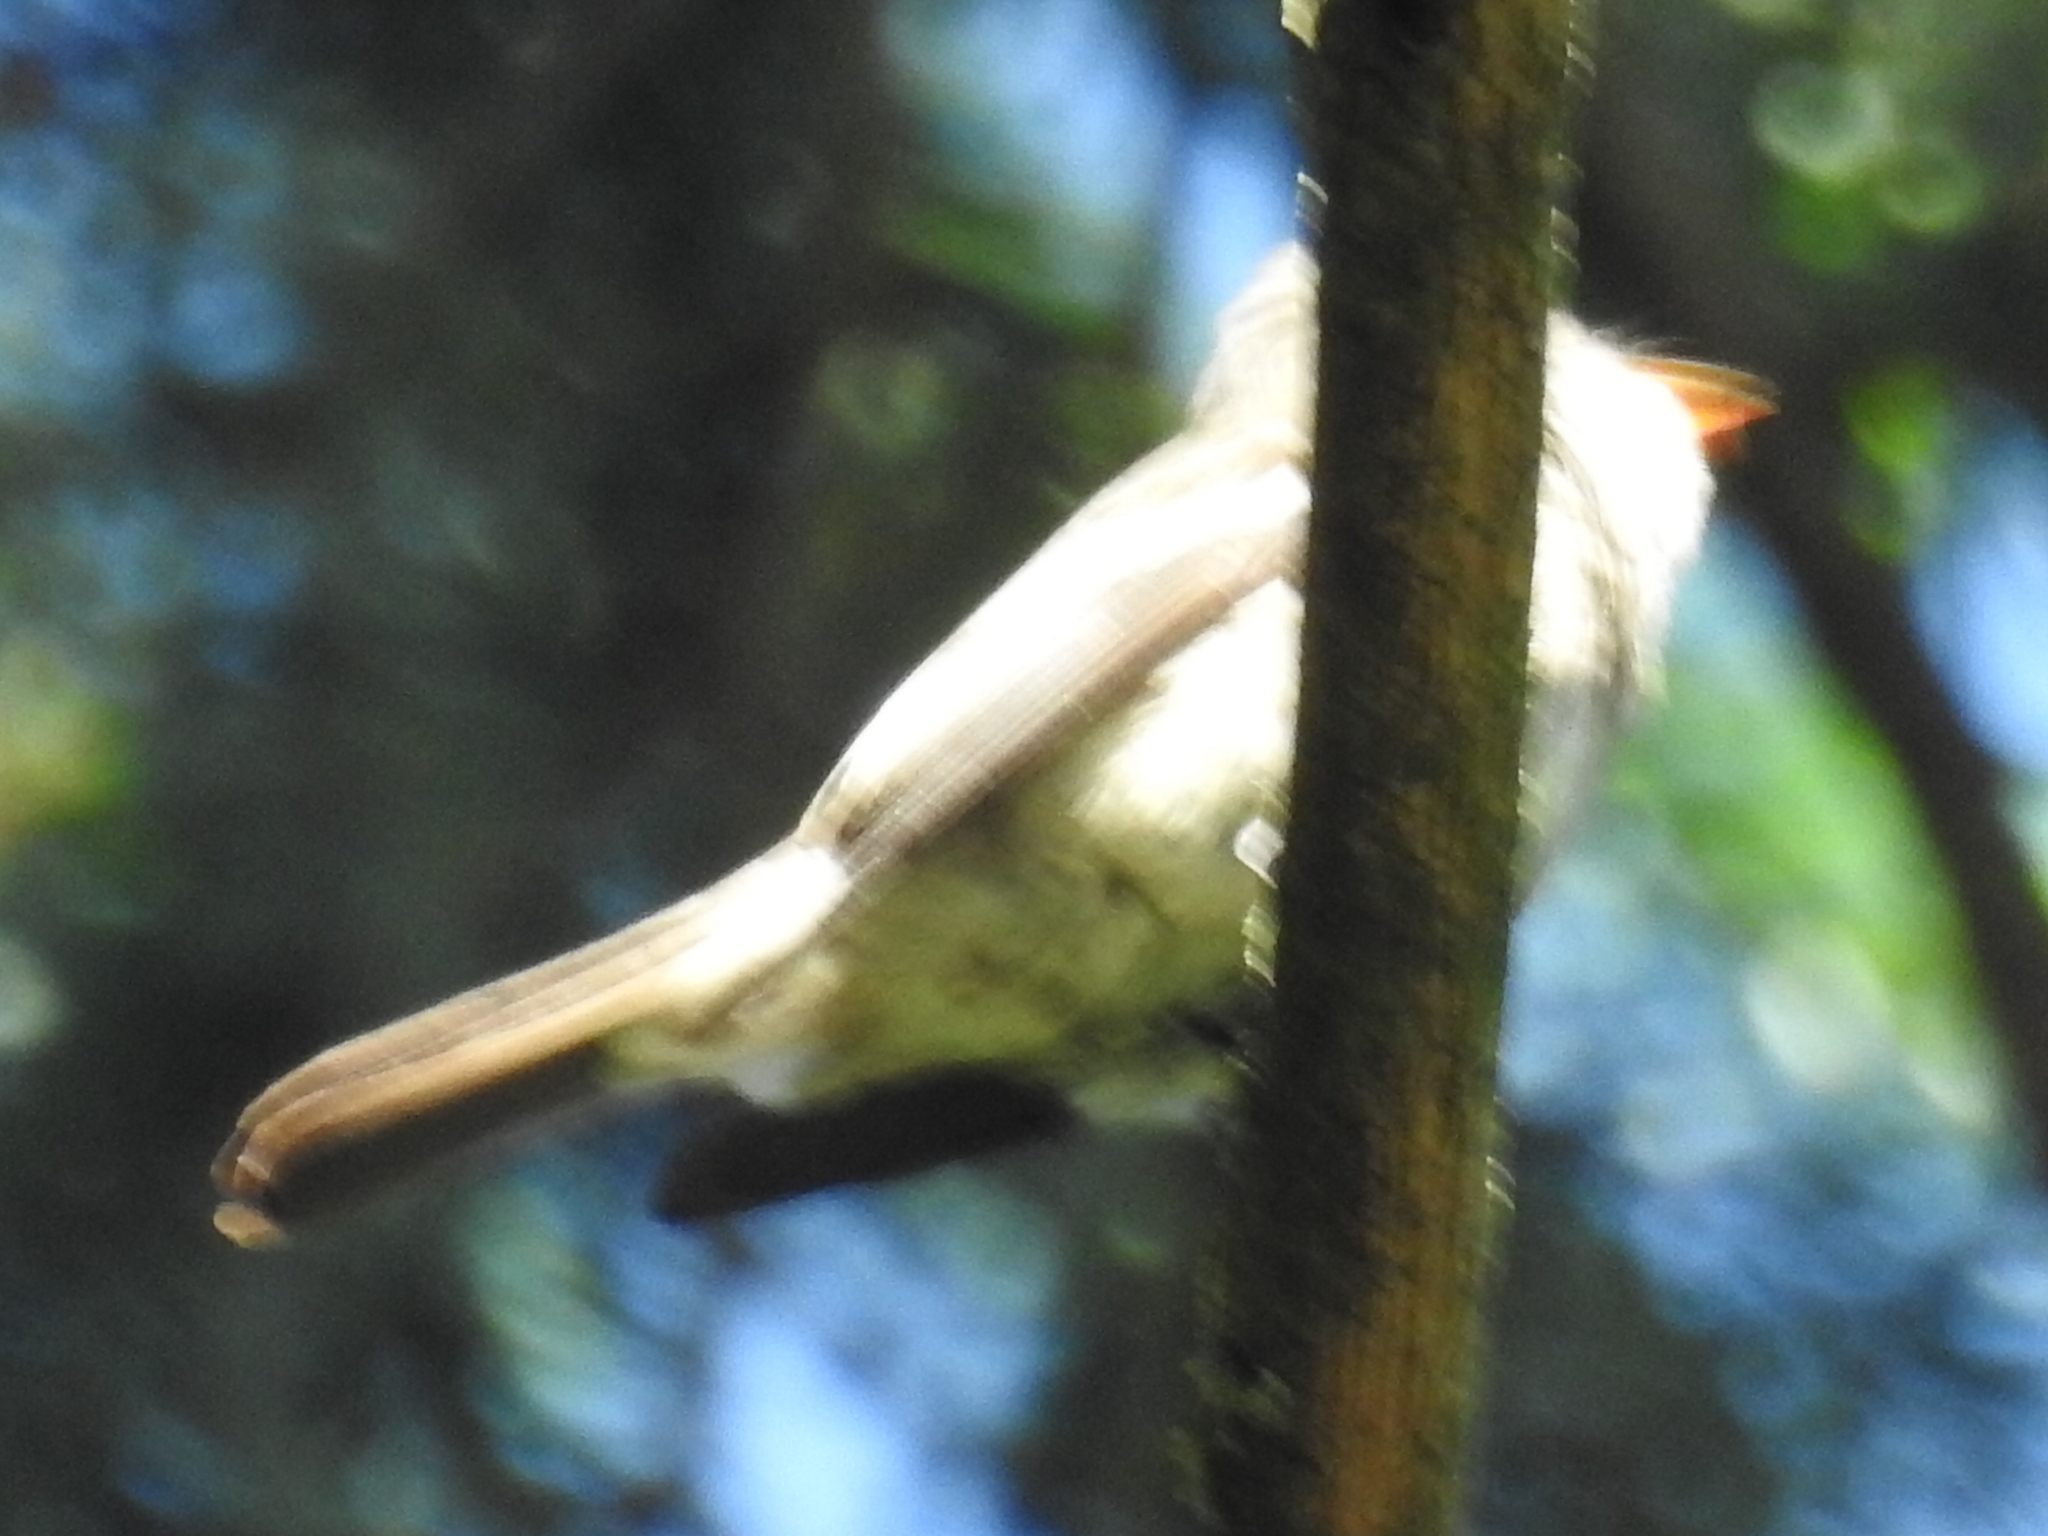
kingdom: Animalia
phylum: Chordata
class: Aves
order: Passeriformes
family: Tyrannidae
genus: Contopus
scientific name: Contopus sordidulus
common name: Western wood-pewee
